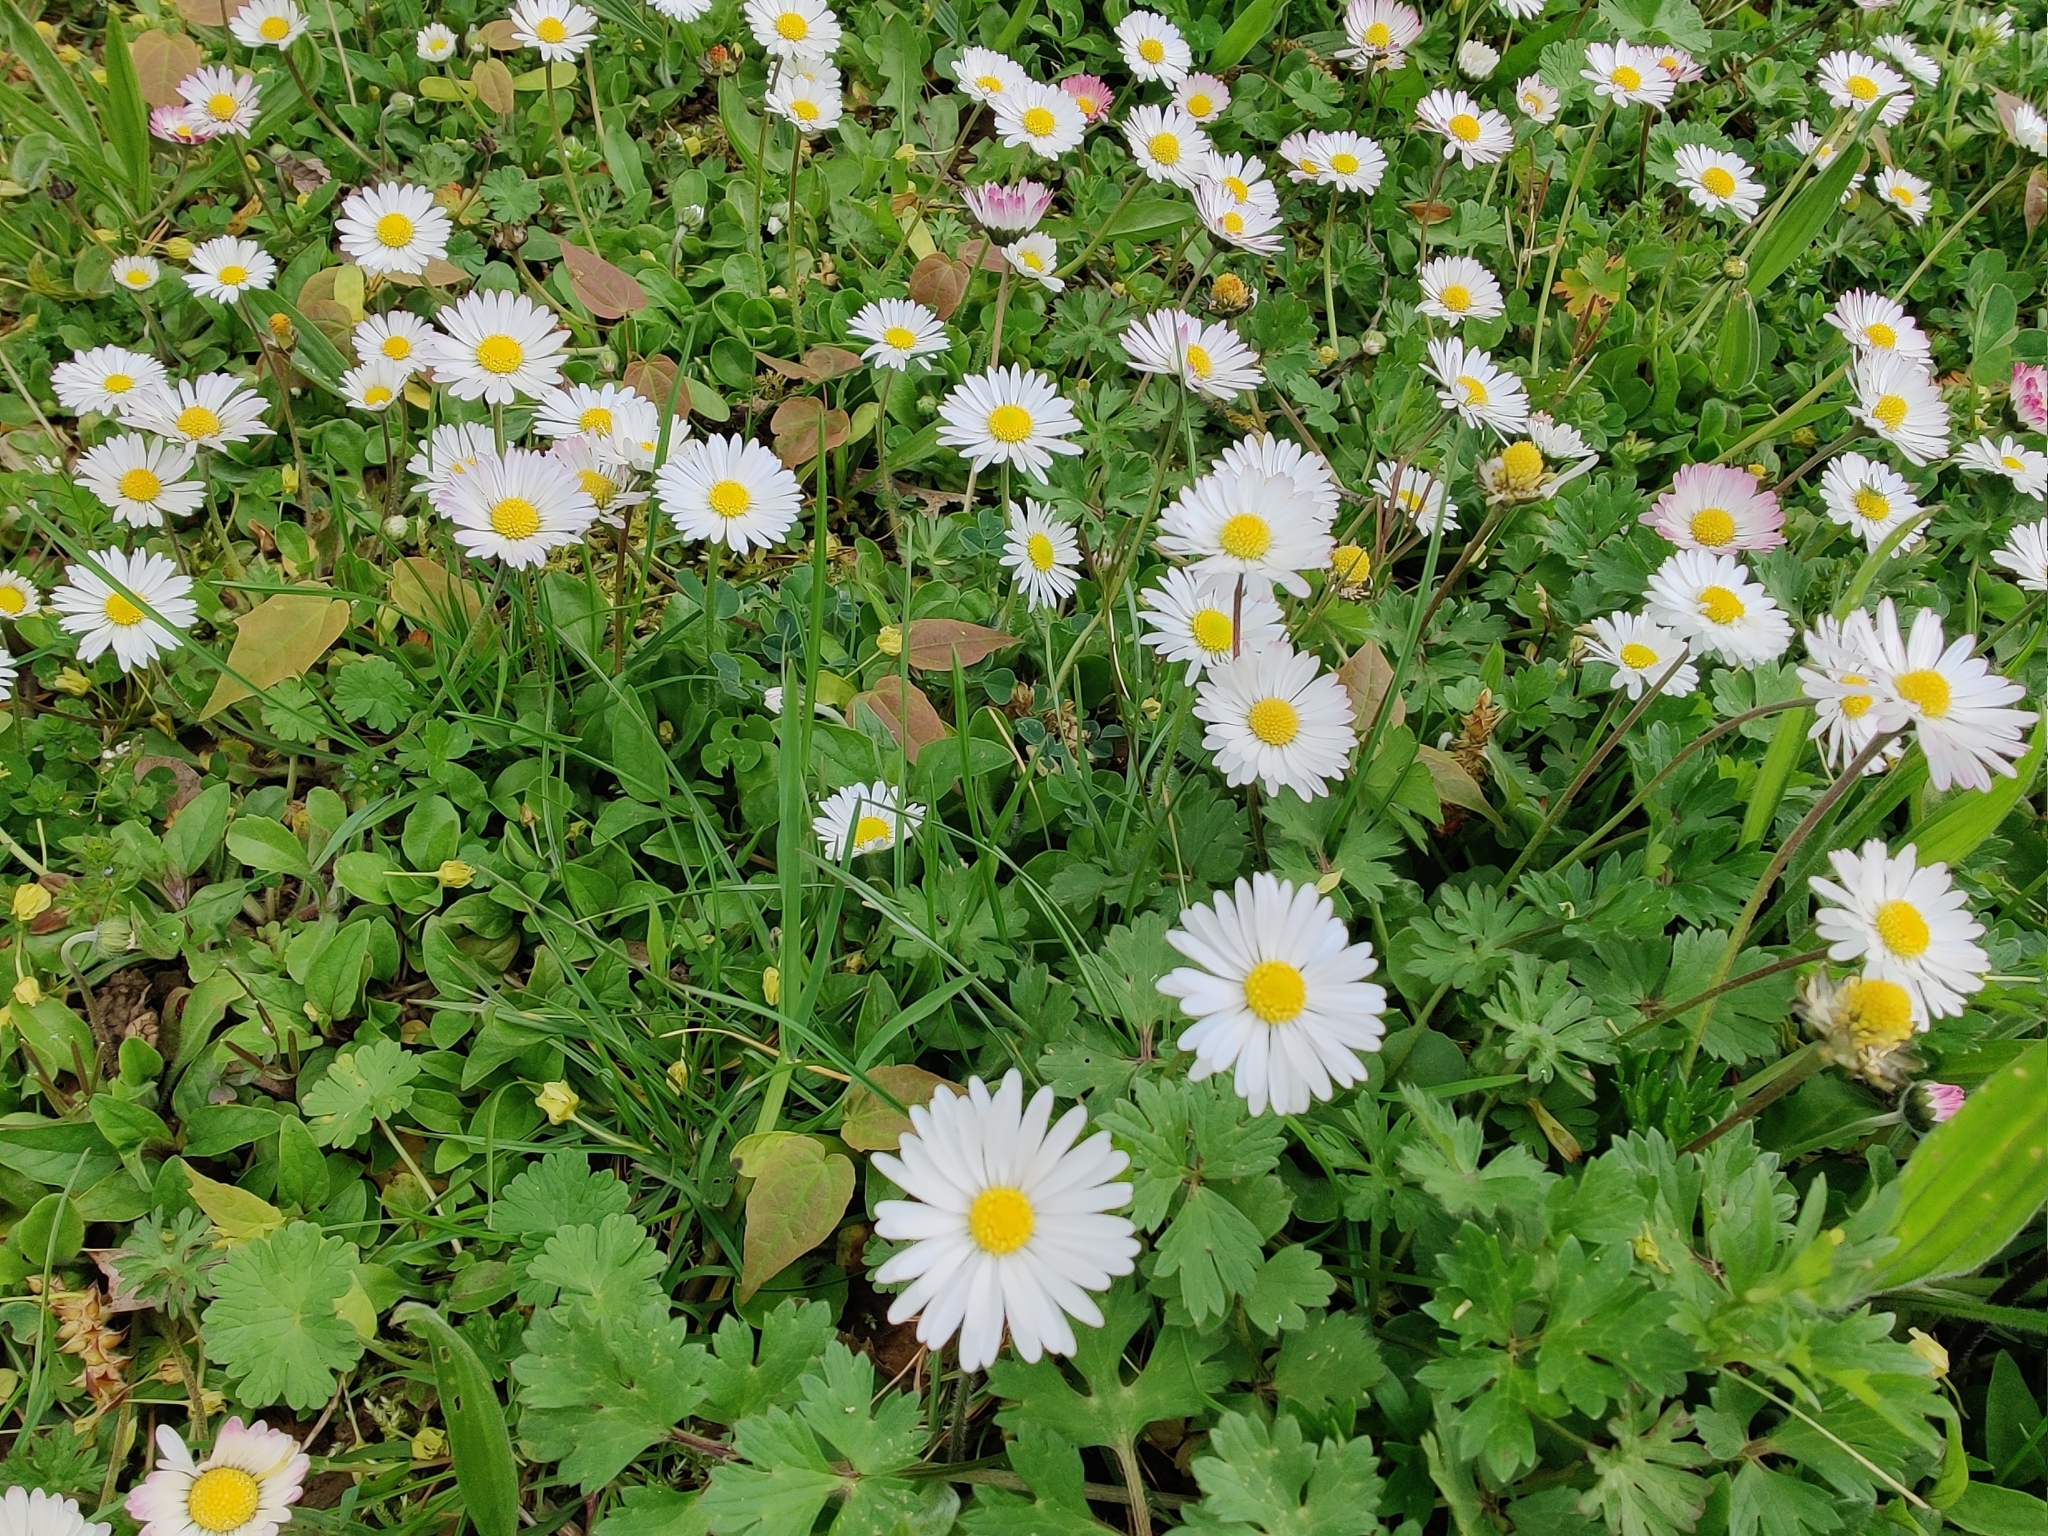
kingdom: Plantae
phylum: Tracheophyta
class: Magnoliopsida
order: Asterales
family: Asteraceae
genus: Bellis
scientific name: Bellis perennis
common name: Lawndaisy
